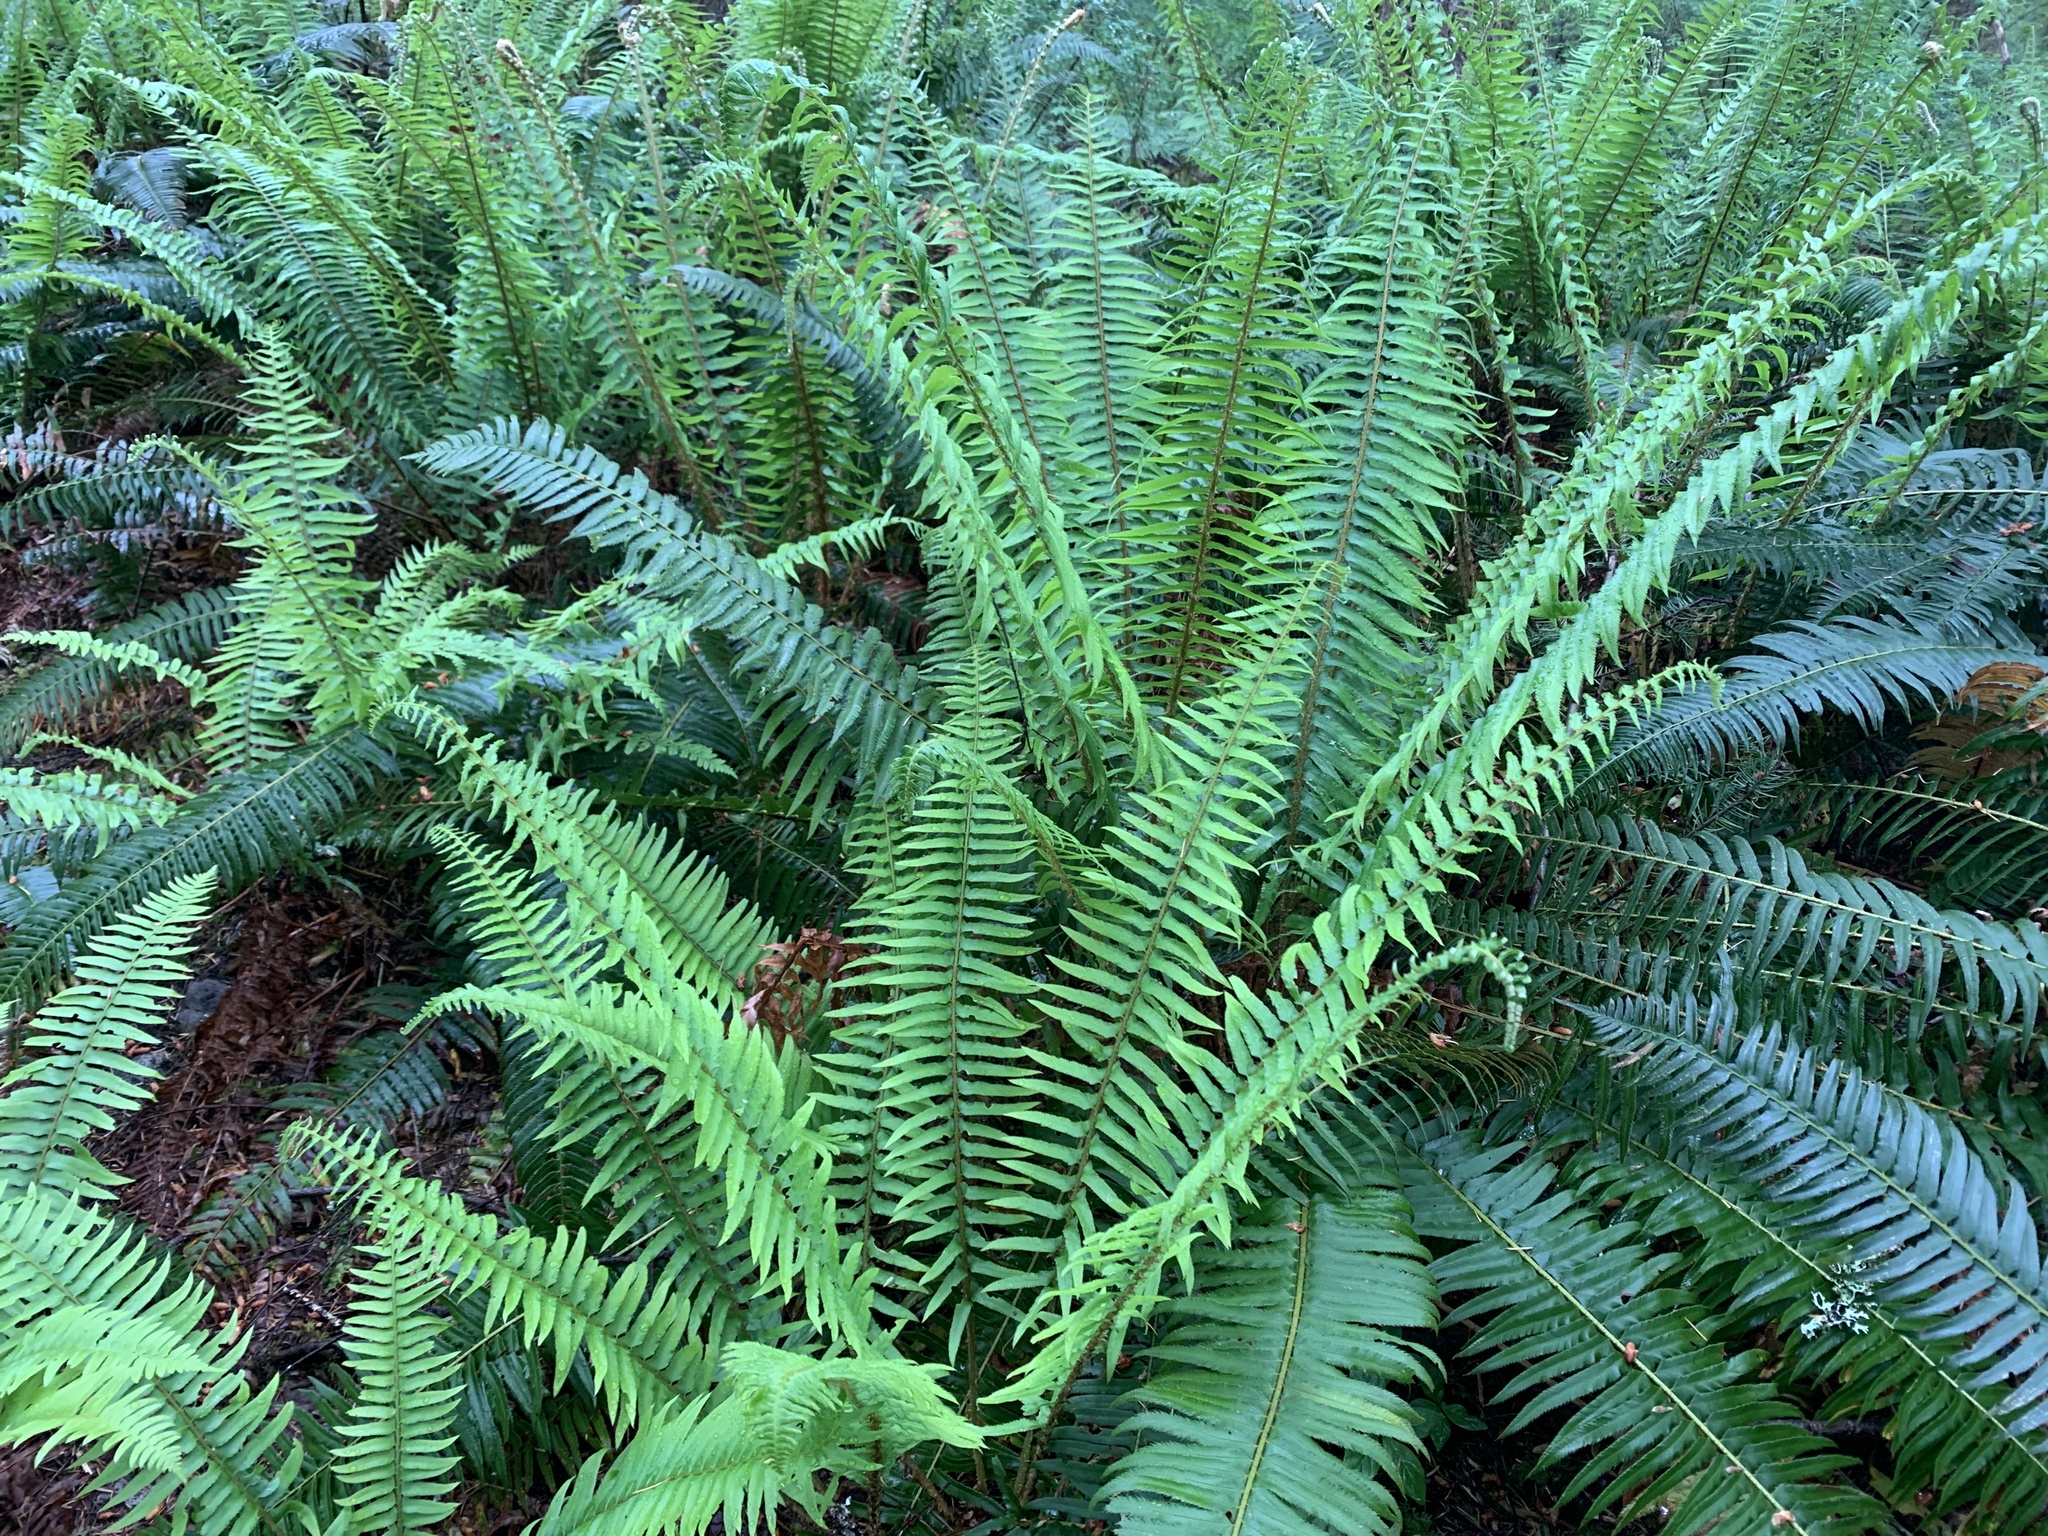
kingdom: Plantae
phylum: Tracheophyta
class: Polypodiopsida
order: Polypodiales
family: Dryopteridaceae
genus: Polystichum
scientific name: Polystichum munitum
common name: Western sword-fern
